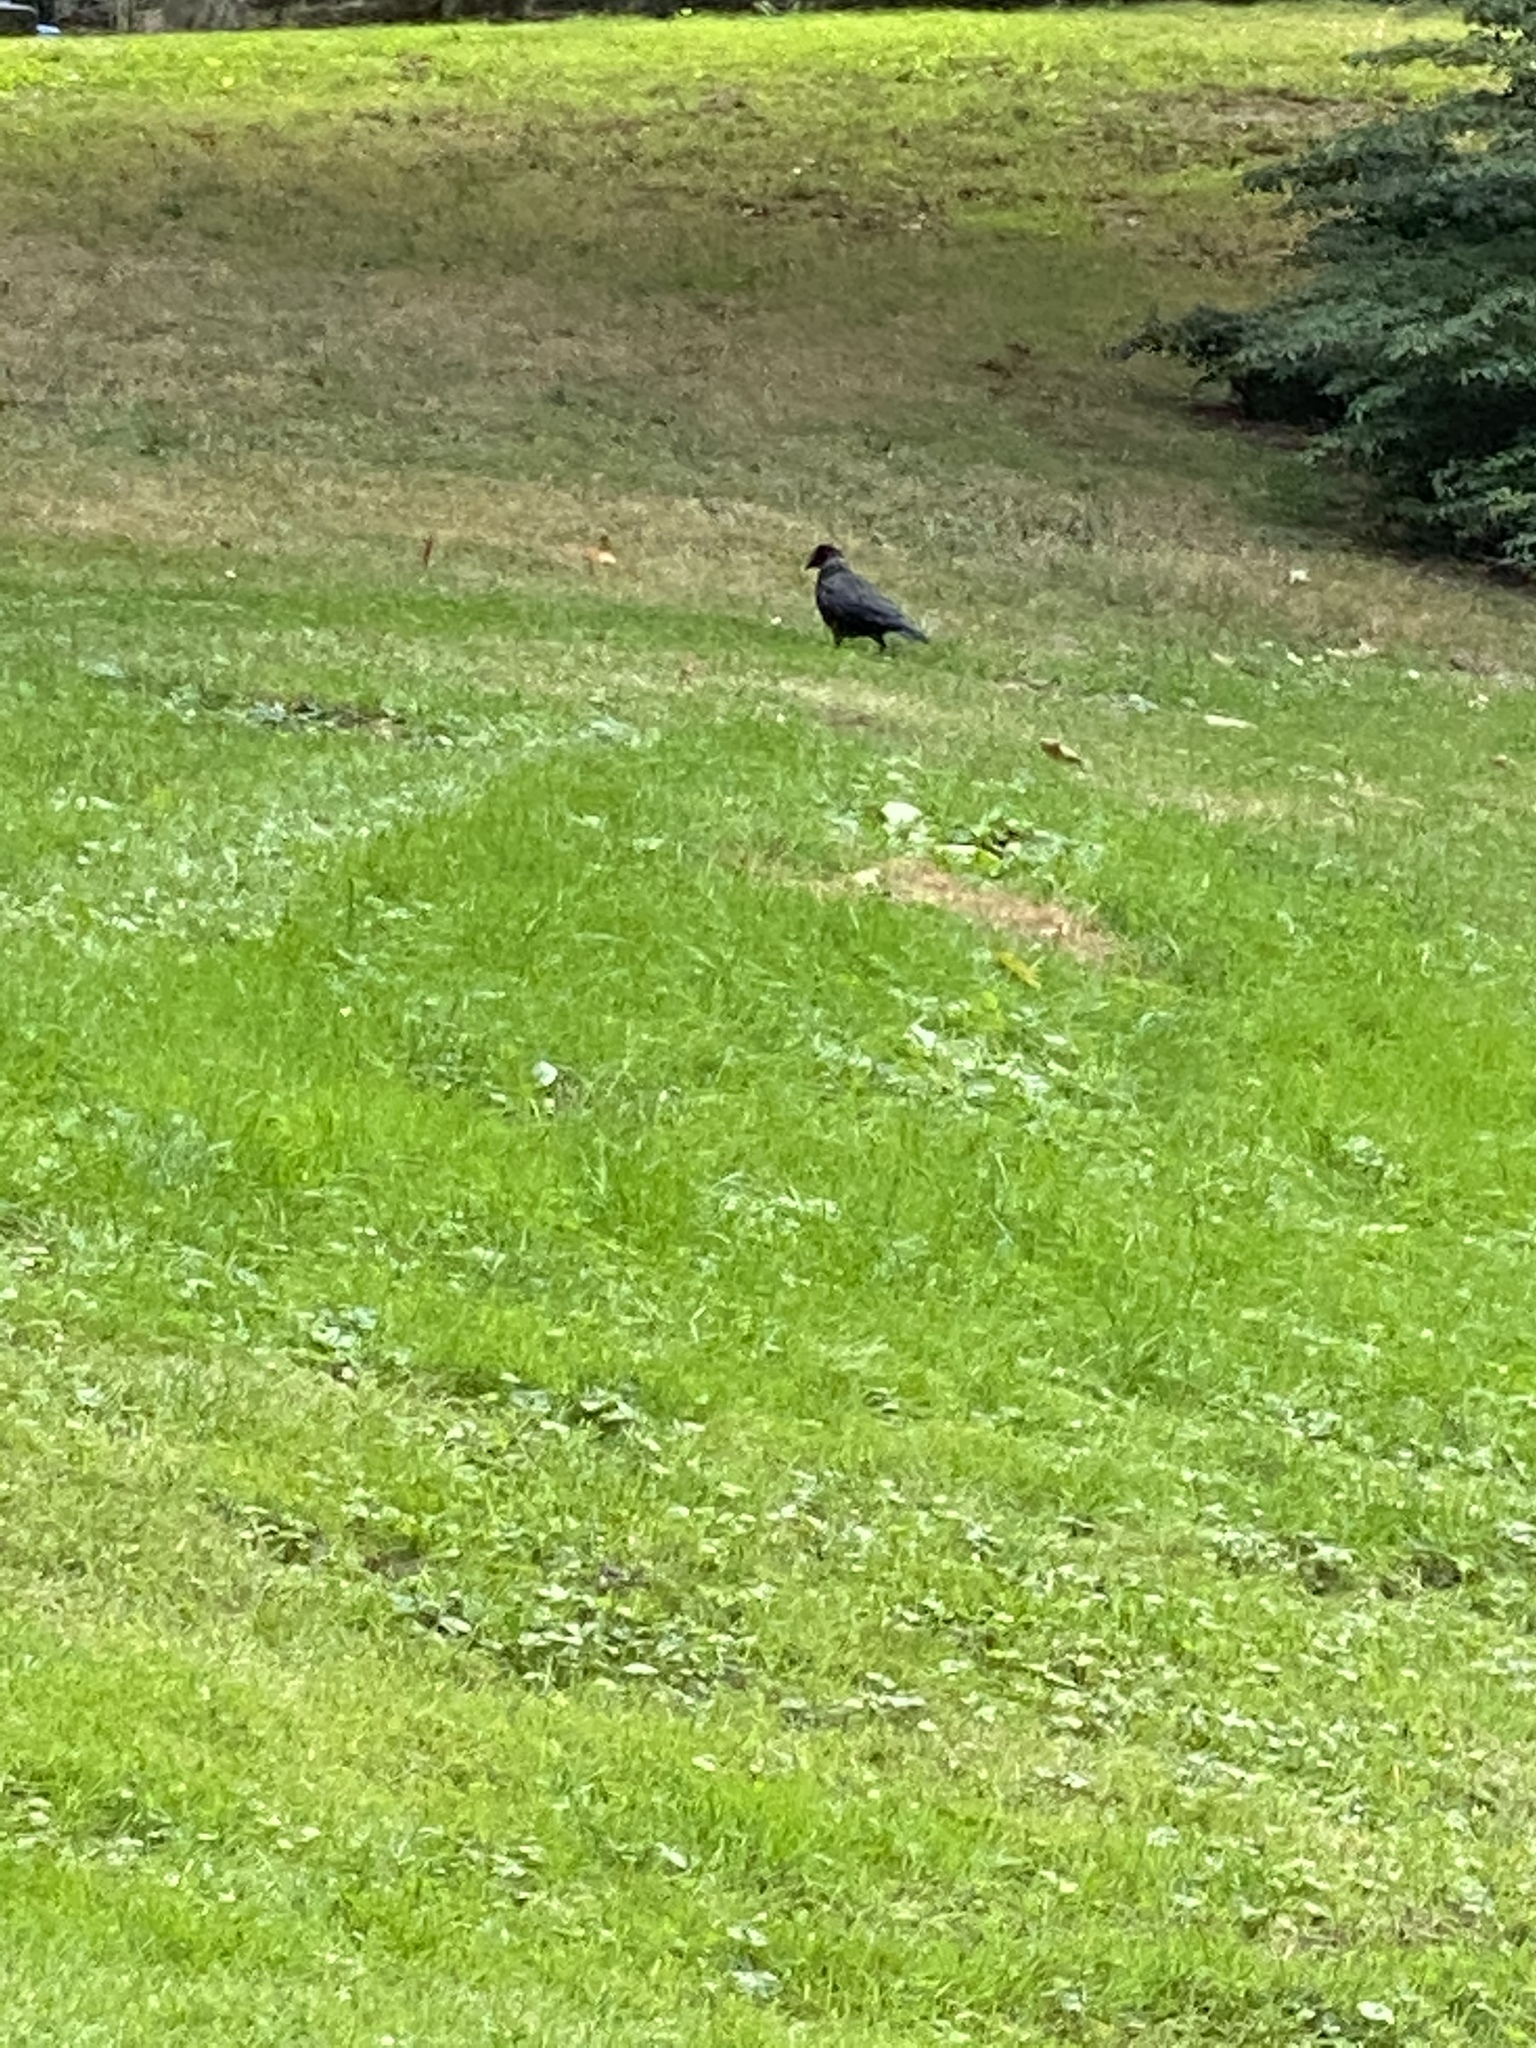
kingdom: Animalia
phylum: Chordata
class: Aves
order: Passeriformes
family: Corvidae
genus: Corvus
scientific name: Corvus brachyrhynchos
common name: American crow
